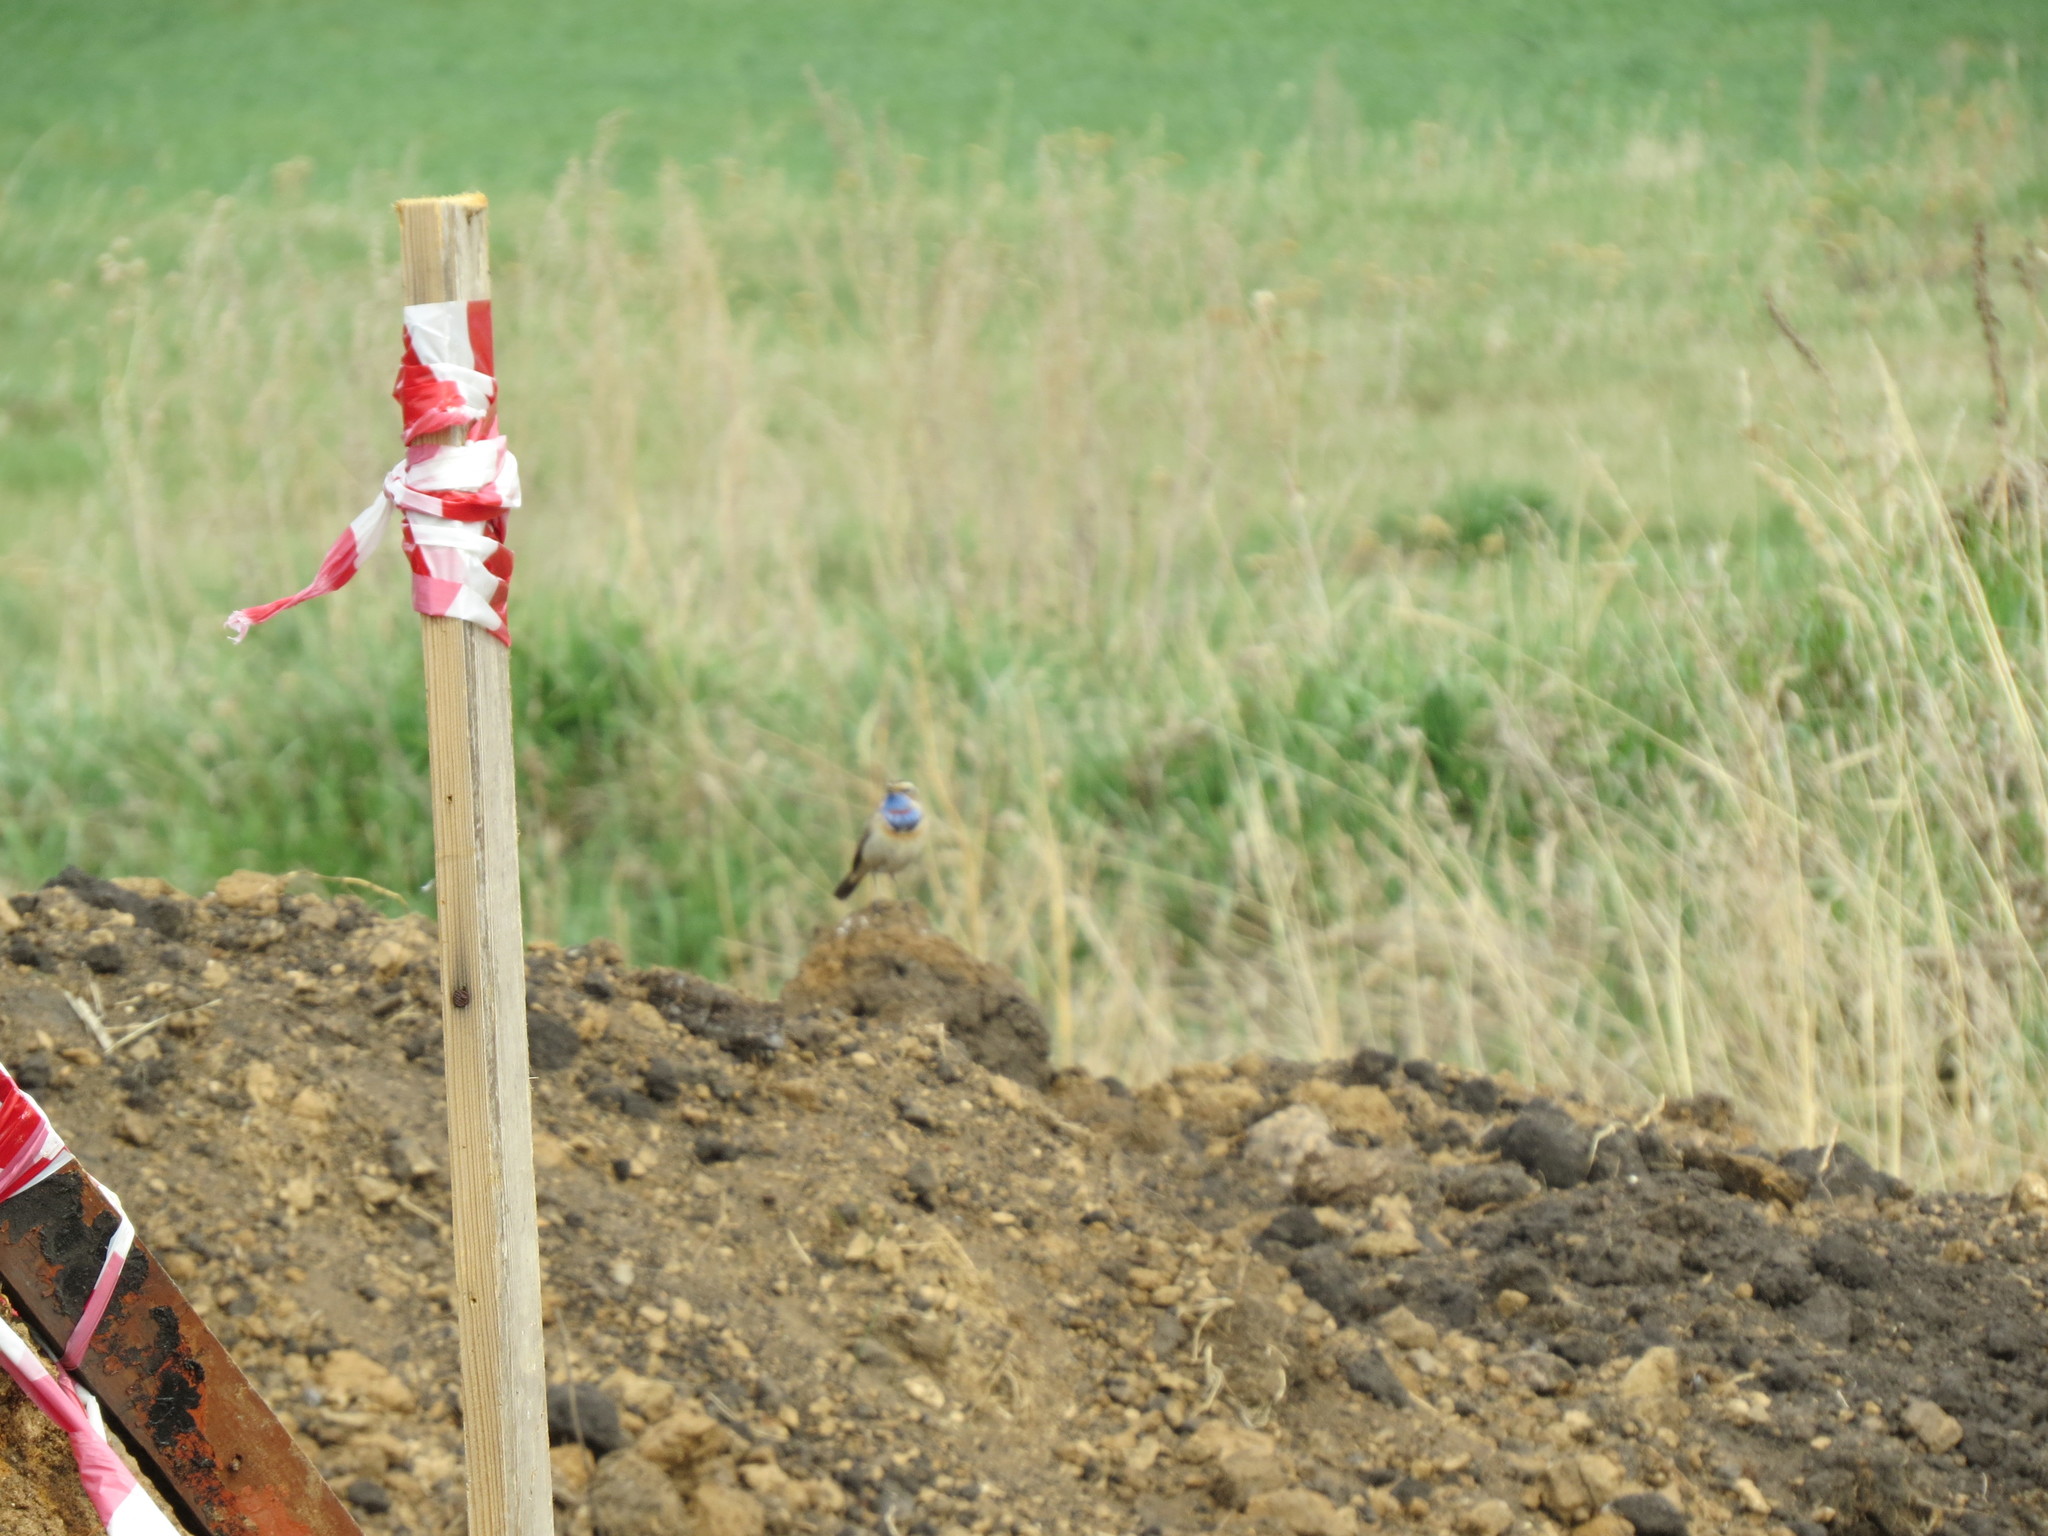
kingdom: Animalia
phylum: Chordata
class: Aves
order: Passeriformes
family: Muscicapidae
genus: Luscinia
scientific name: Luscinia svecica
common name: Bluethroat
